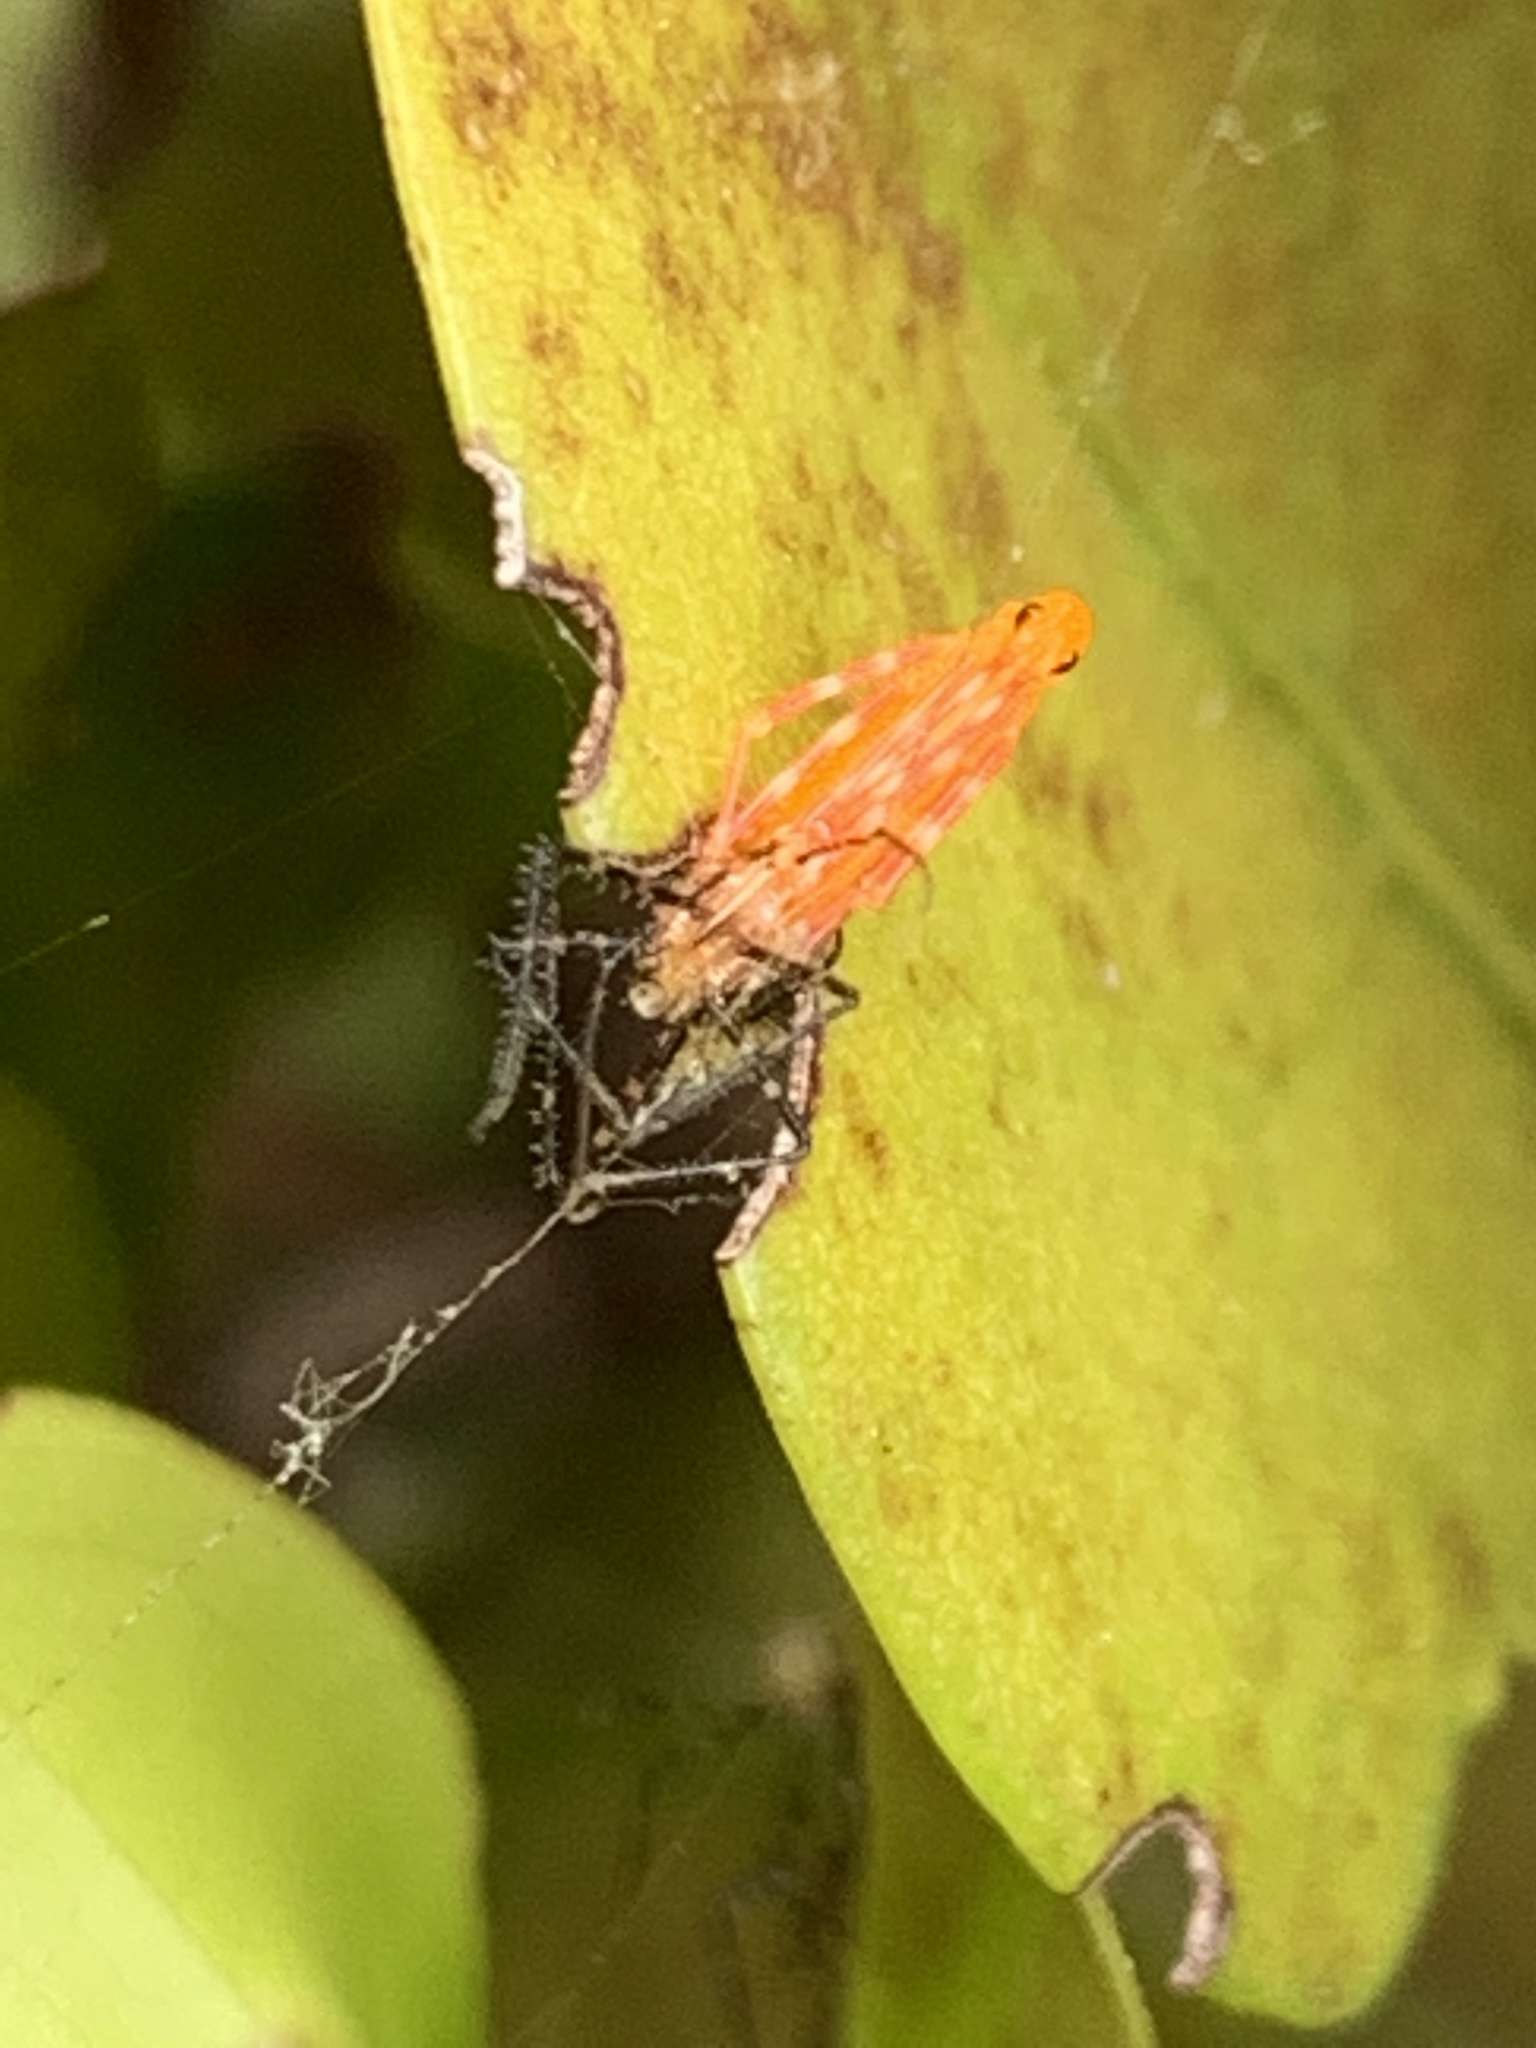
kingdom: Animalia
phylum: Arthropoda
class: Insecta
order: Hemiptera
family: Reduviidae
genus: Zelus
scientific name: Zelus longipes
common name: Milkweed assassin bug
